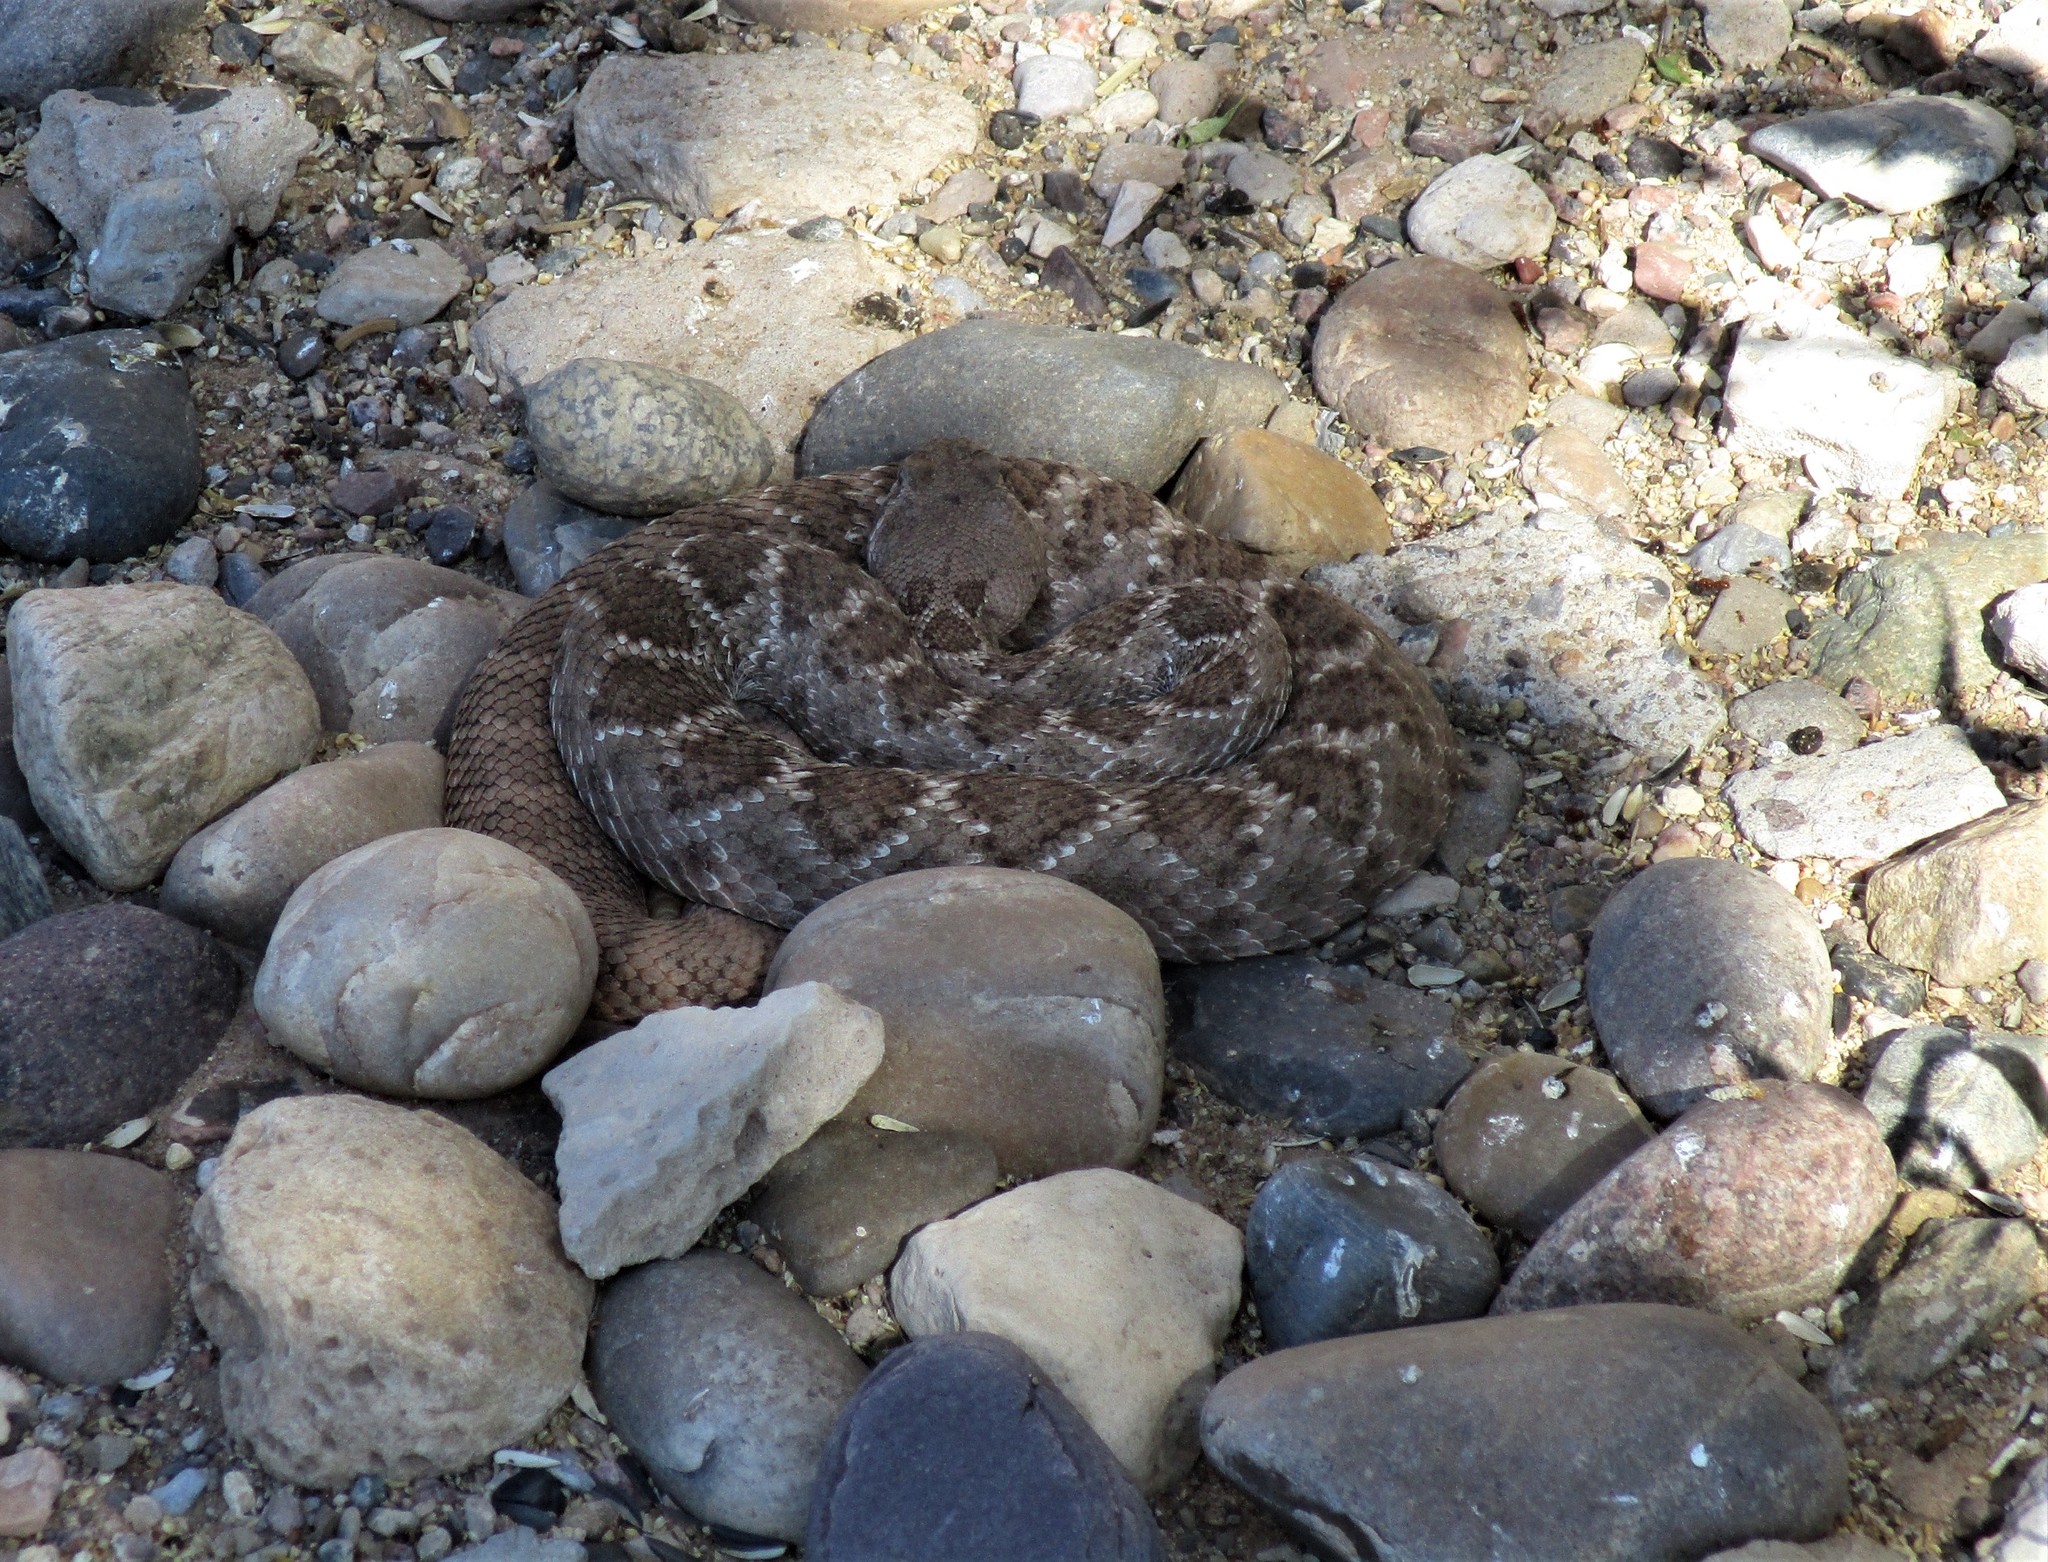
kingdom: Animalia
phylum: Chordata
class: Squamata
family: Viperidae
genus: Crotalus
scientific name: Crotalus atrox
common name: Western diamond-backed rattlesnake
